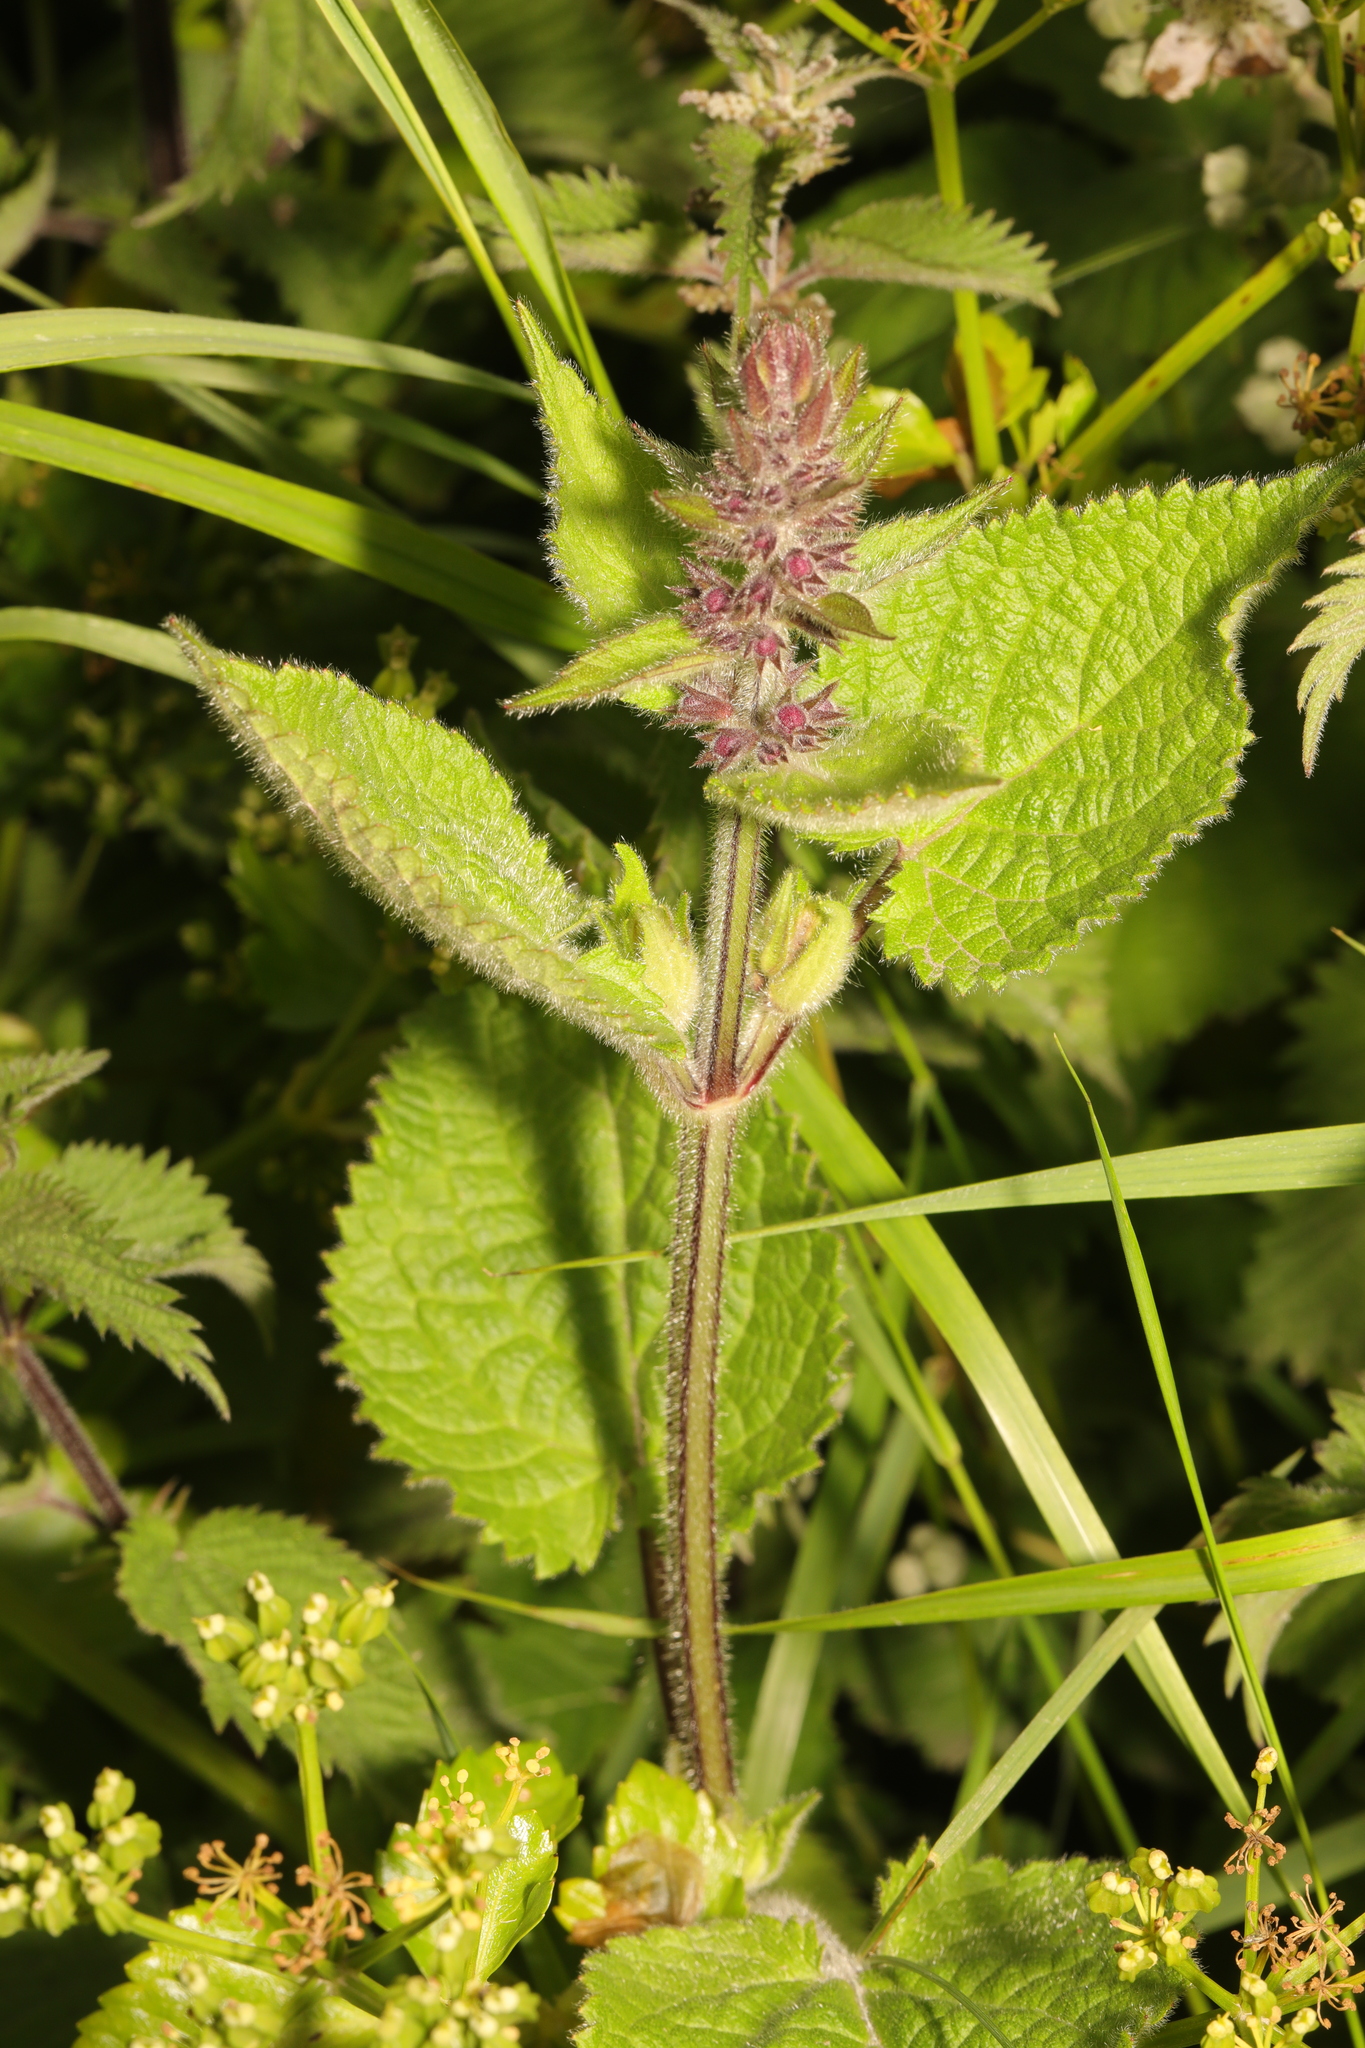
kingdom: Plantae
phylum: Tracheophyta
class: Magnoliopsida
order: Lamiales
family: Lamiaceae
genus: Stachys
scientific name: Stachys sylvatica
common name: Hedge woundwort
